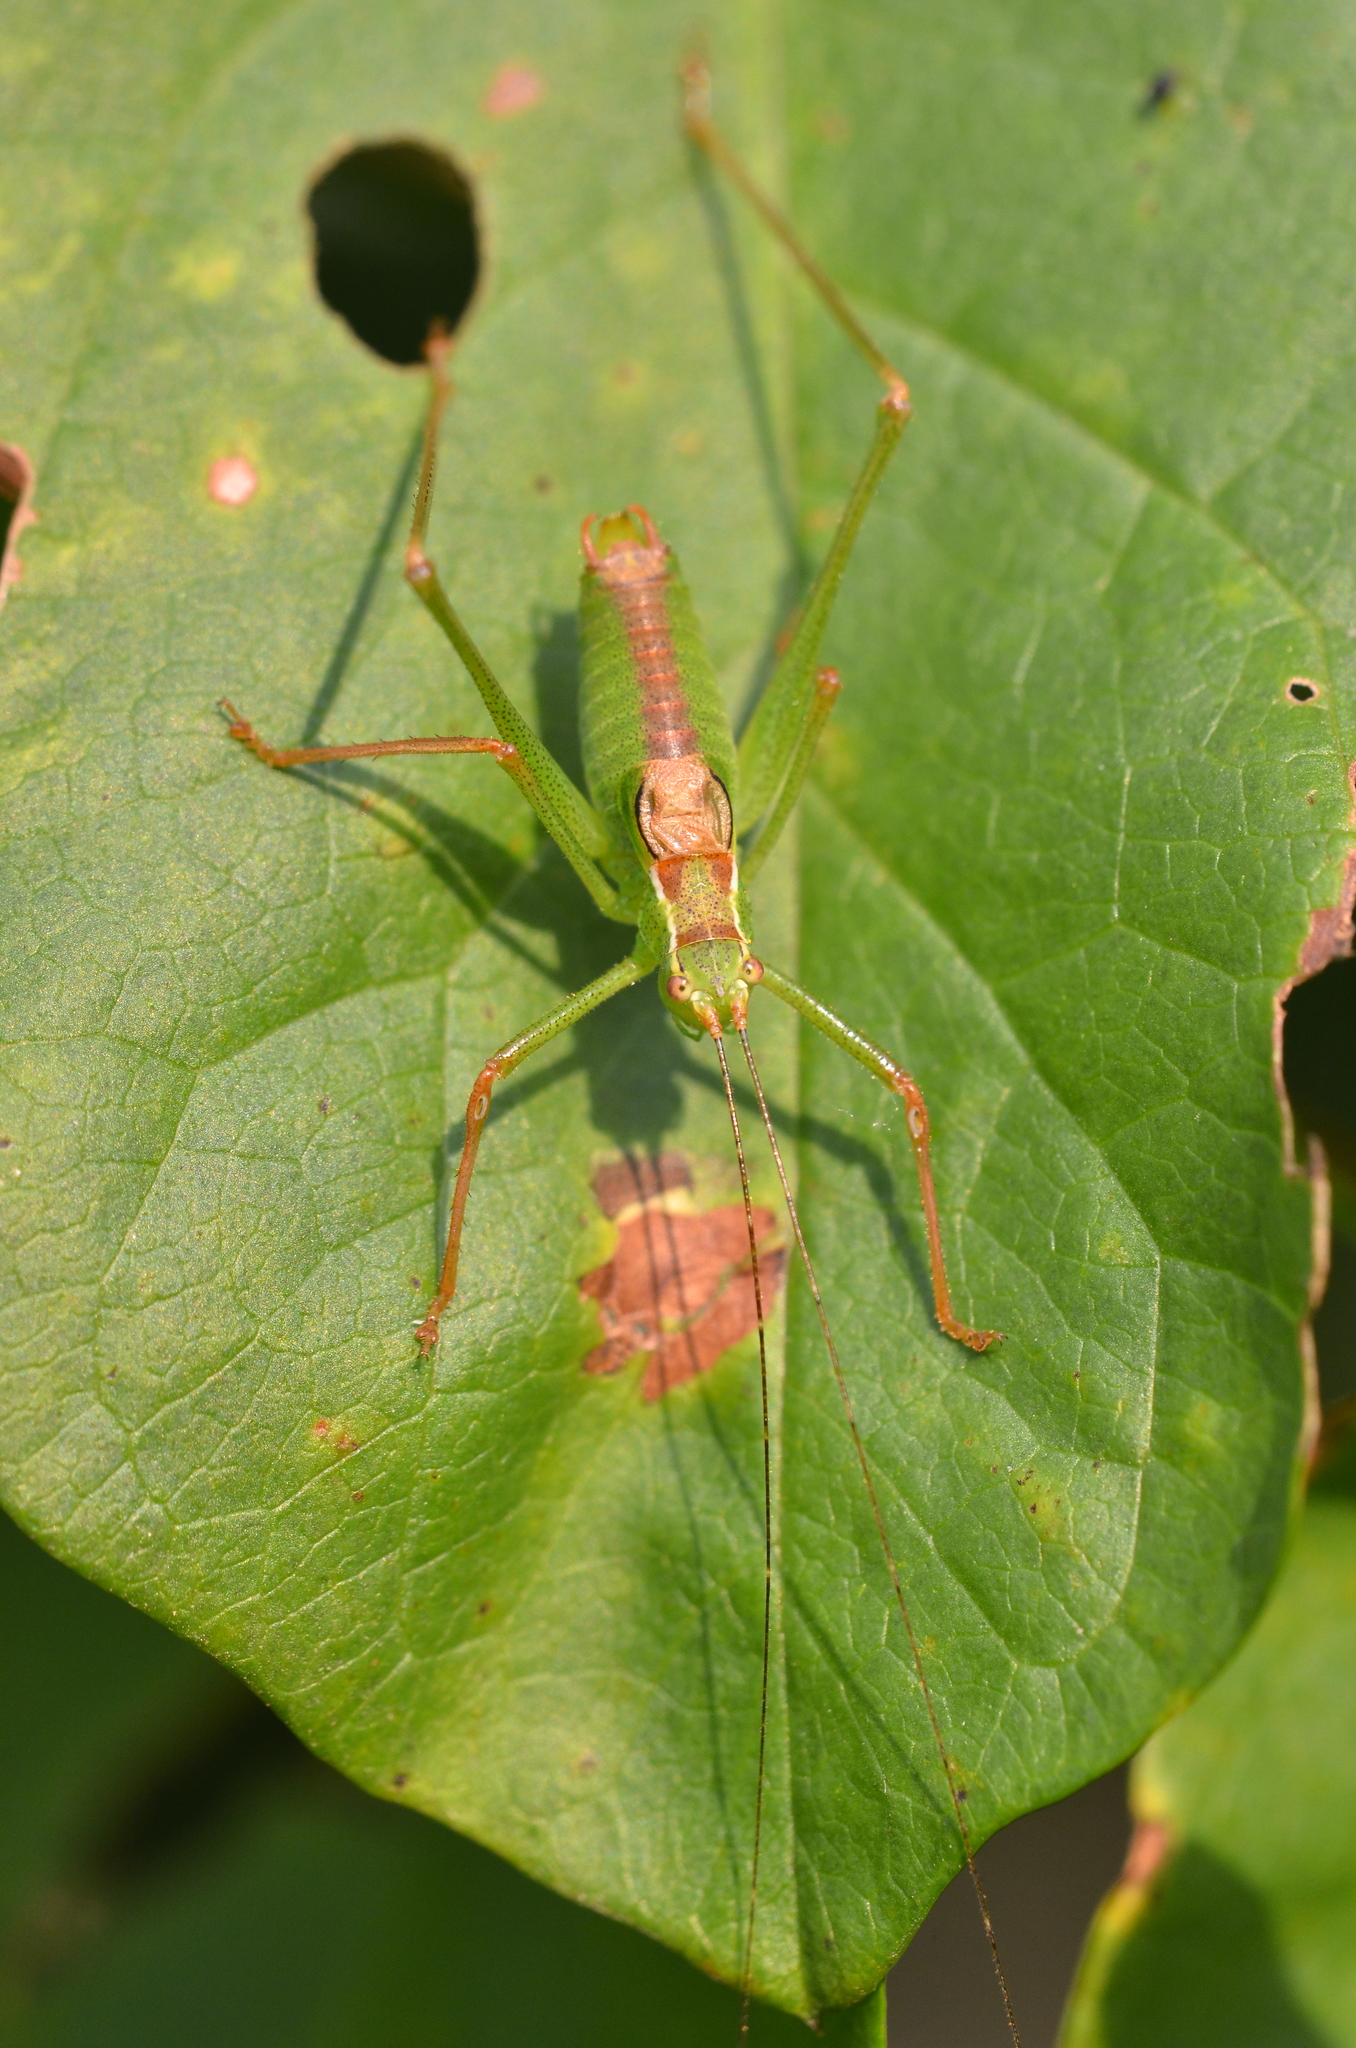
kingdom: Animalia
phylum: Arthropoda
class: Insecta
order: Orthoptera
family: Tettigoniidae
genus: Leptophyes
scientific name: Leptophyes punctatissima
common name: Speckled bush-cricket
